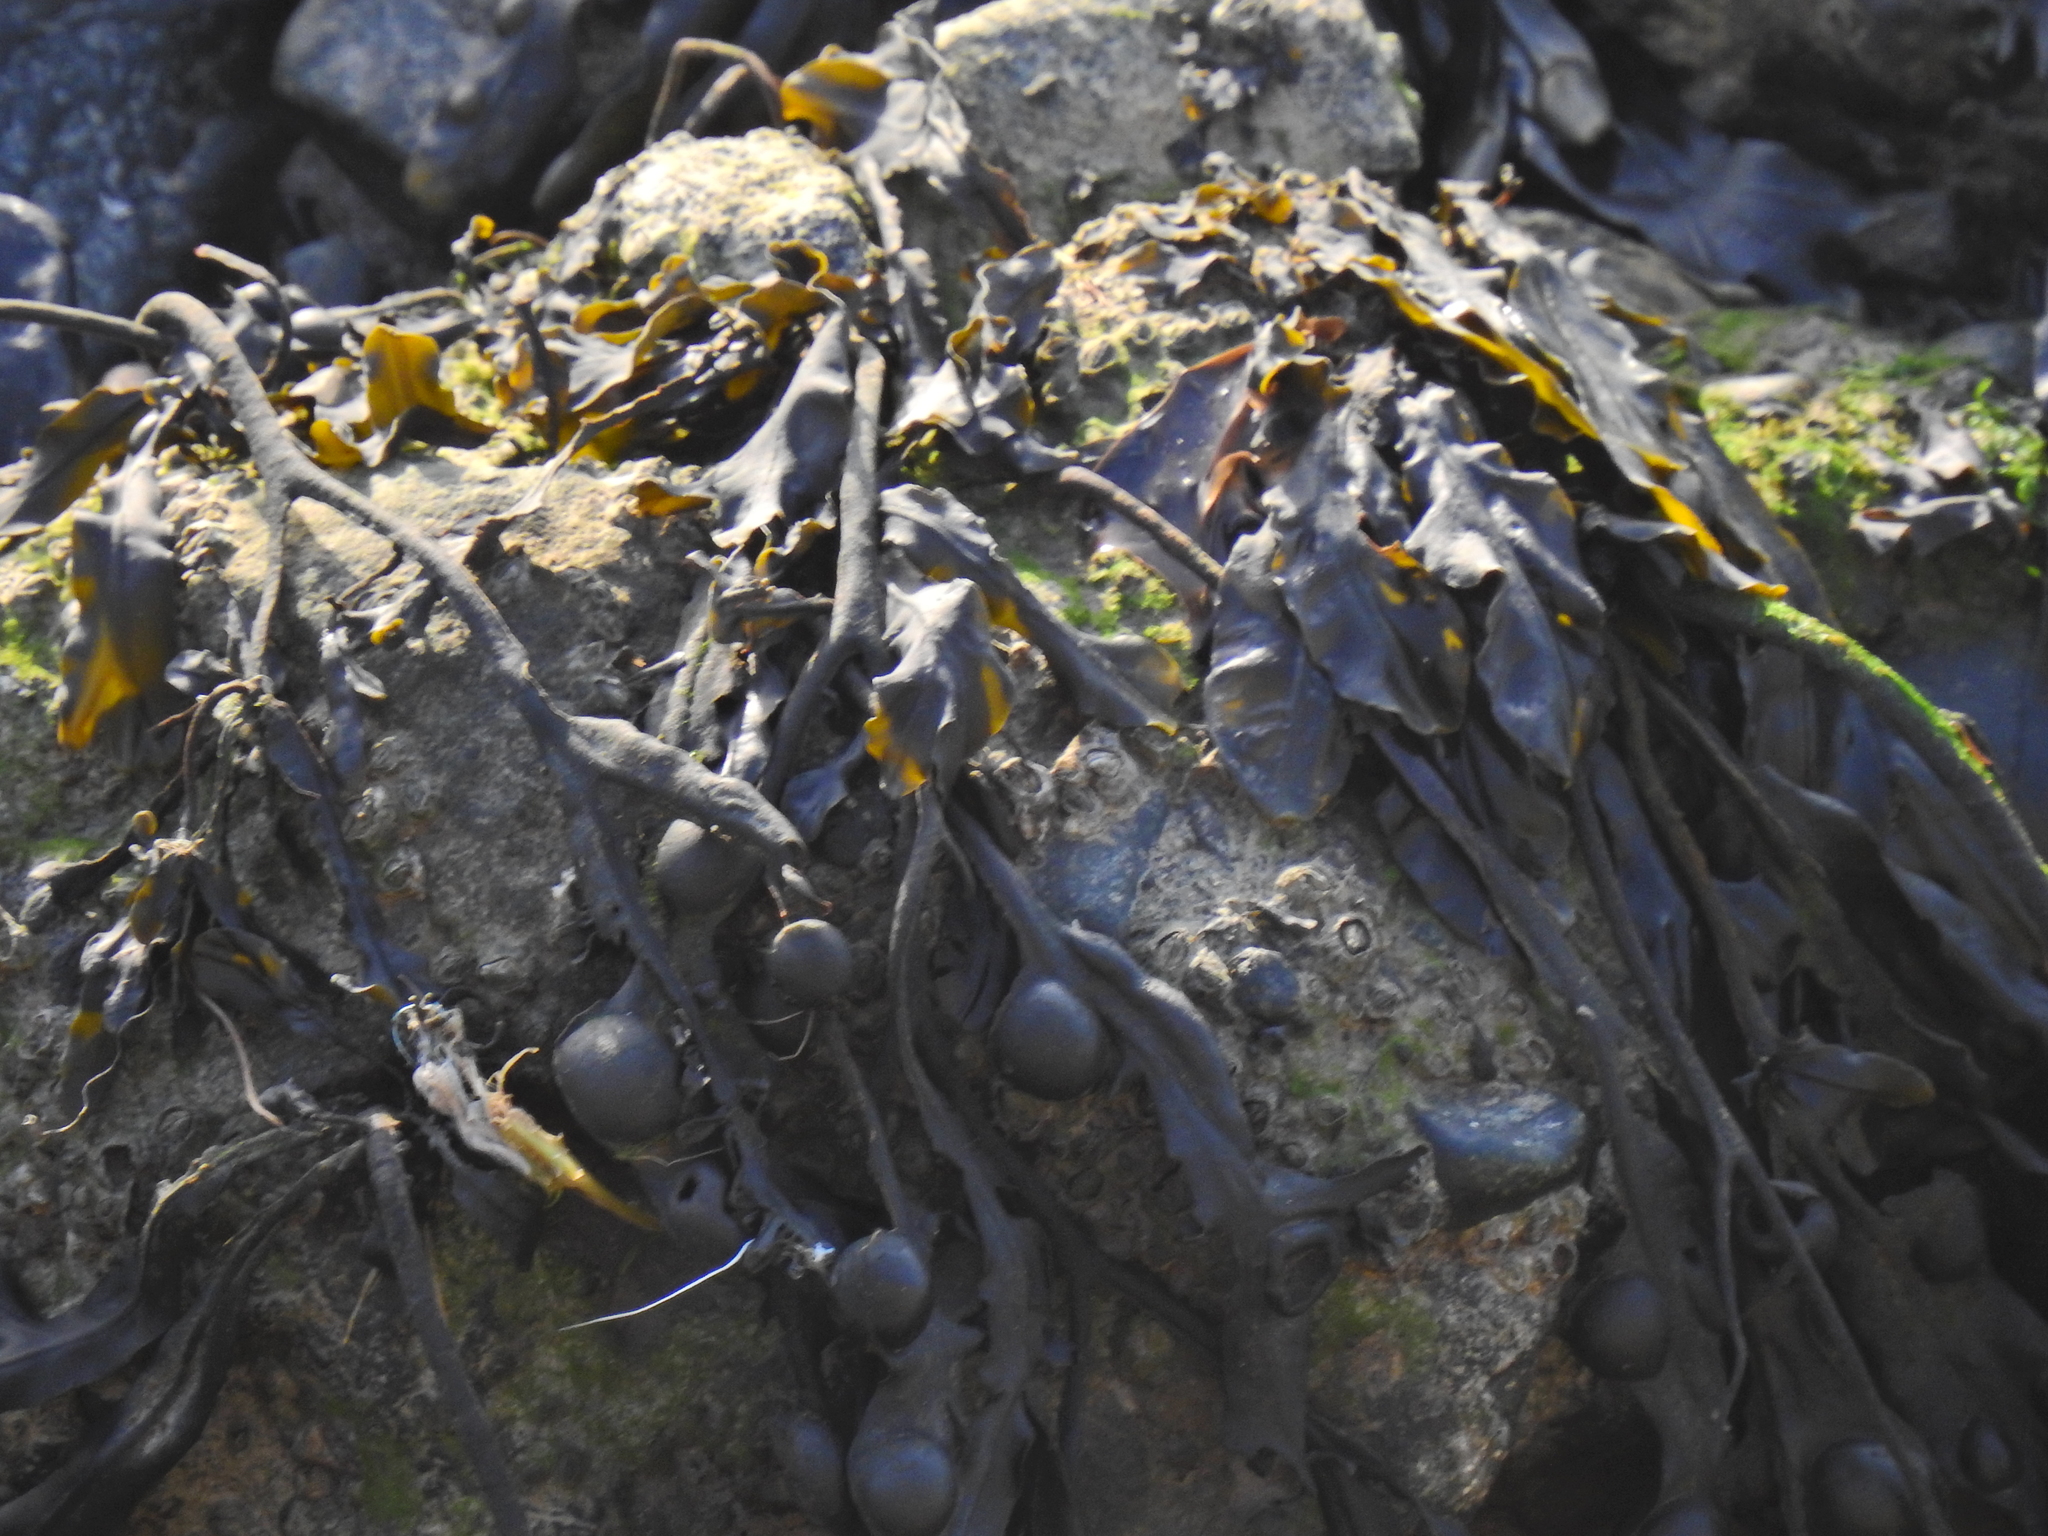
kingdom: Chromista
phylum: Ochrophyta
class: Phaeophyceae
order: Fucales
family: Fucaceae
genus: Fucus
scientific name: Fucus vesiculosus
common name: Bladder wrack
